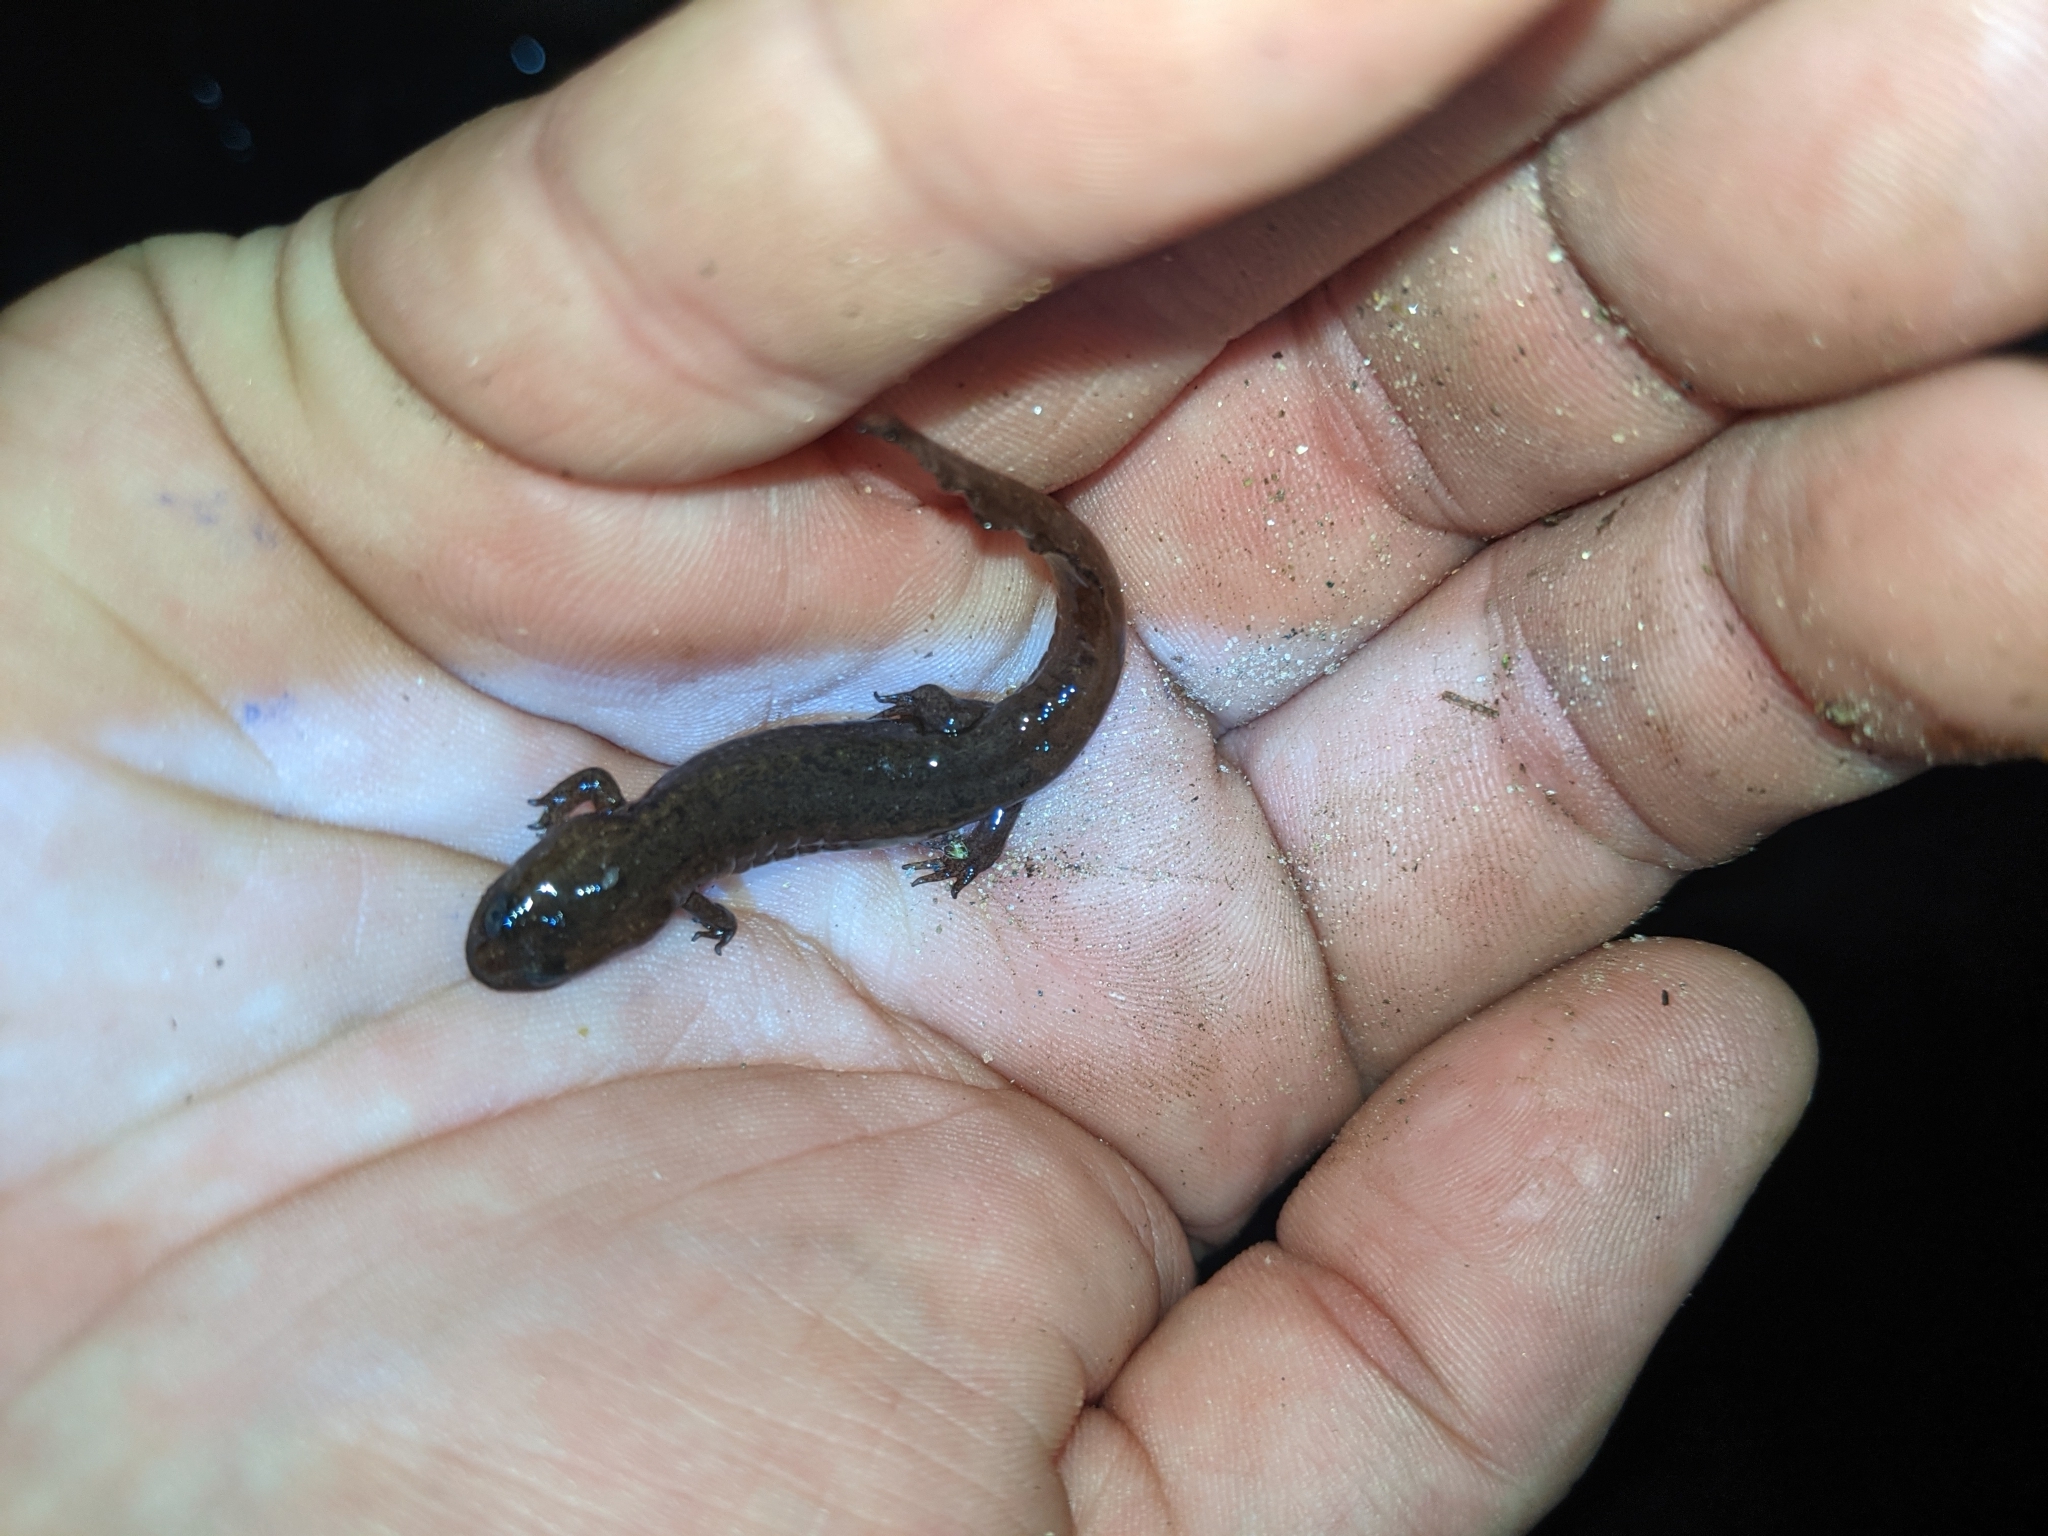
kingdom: Animalia
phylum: Chordata
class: Amphibia
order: Caudata
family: Plethodontidae
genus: Desmognathus
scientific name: Desmognathus
